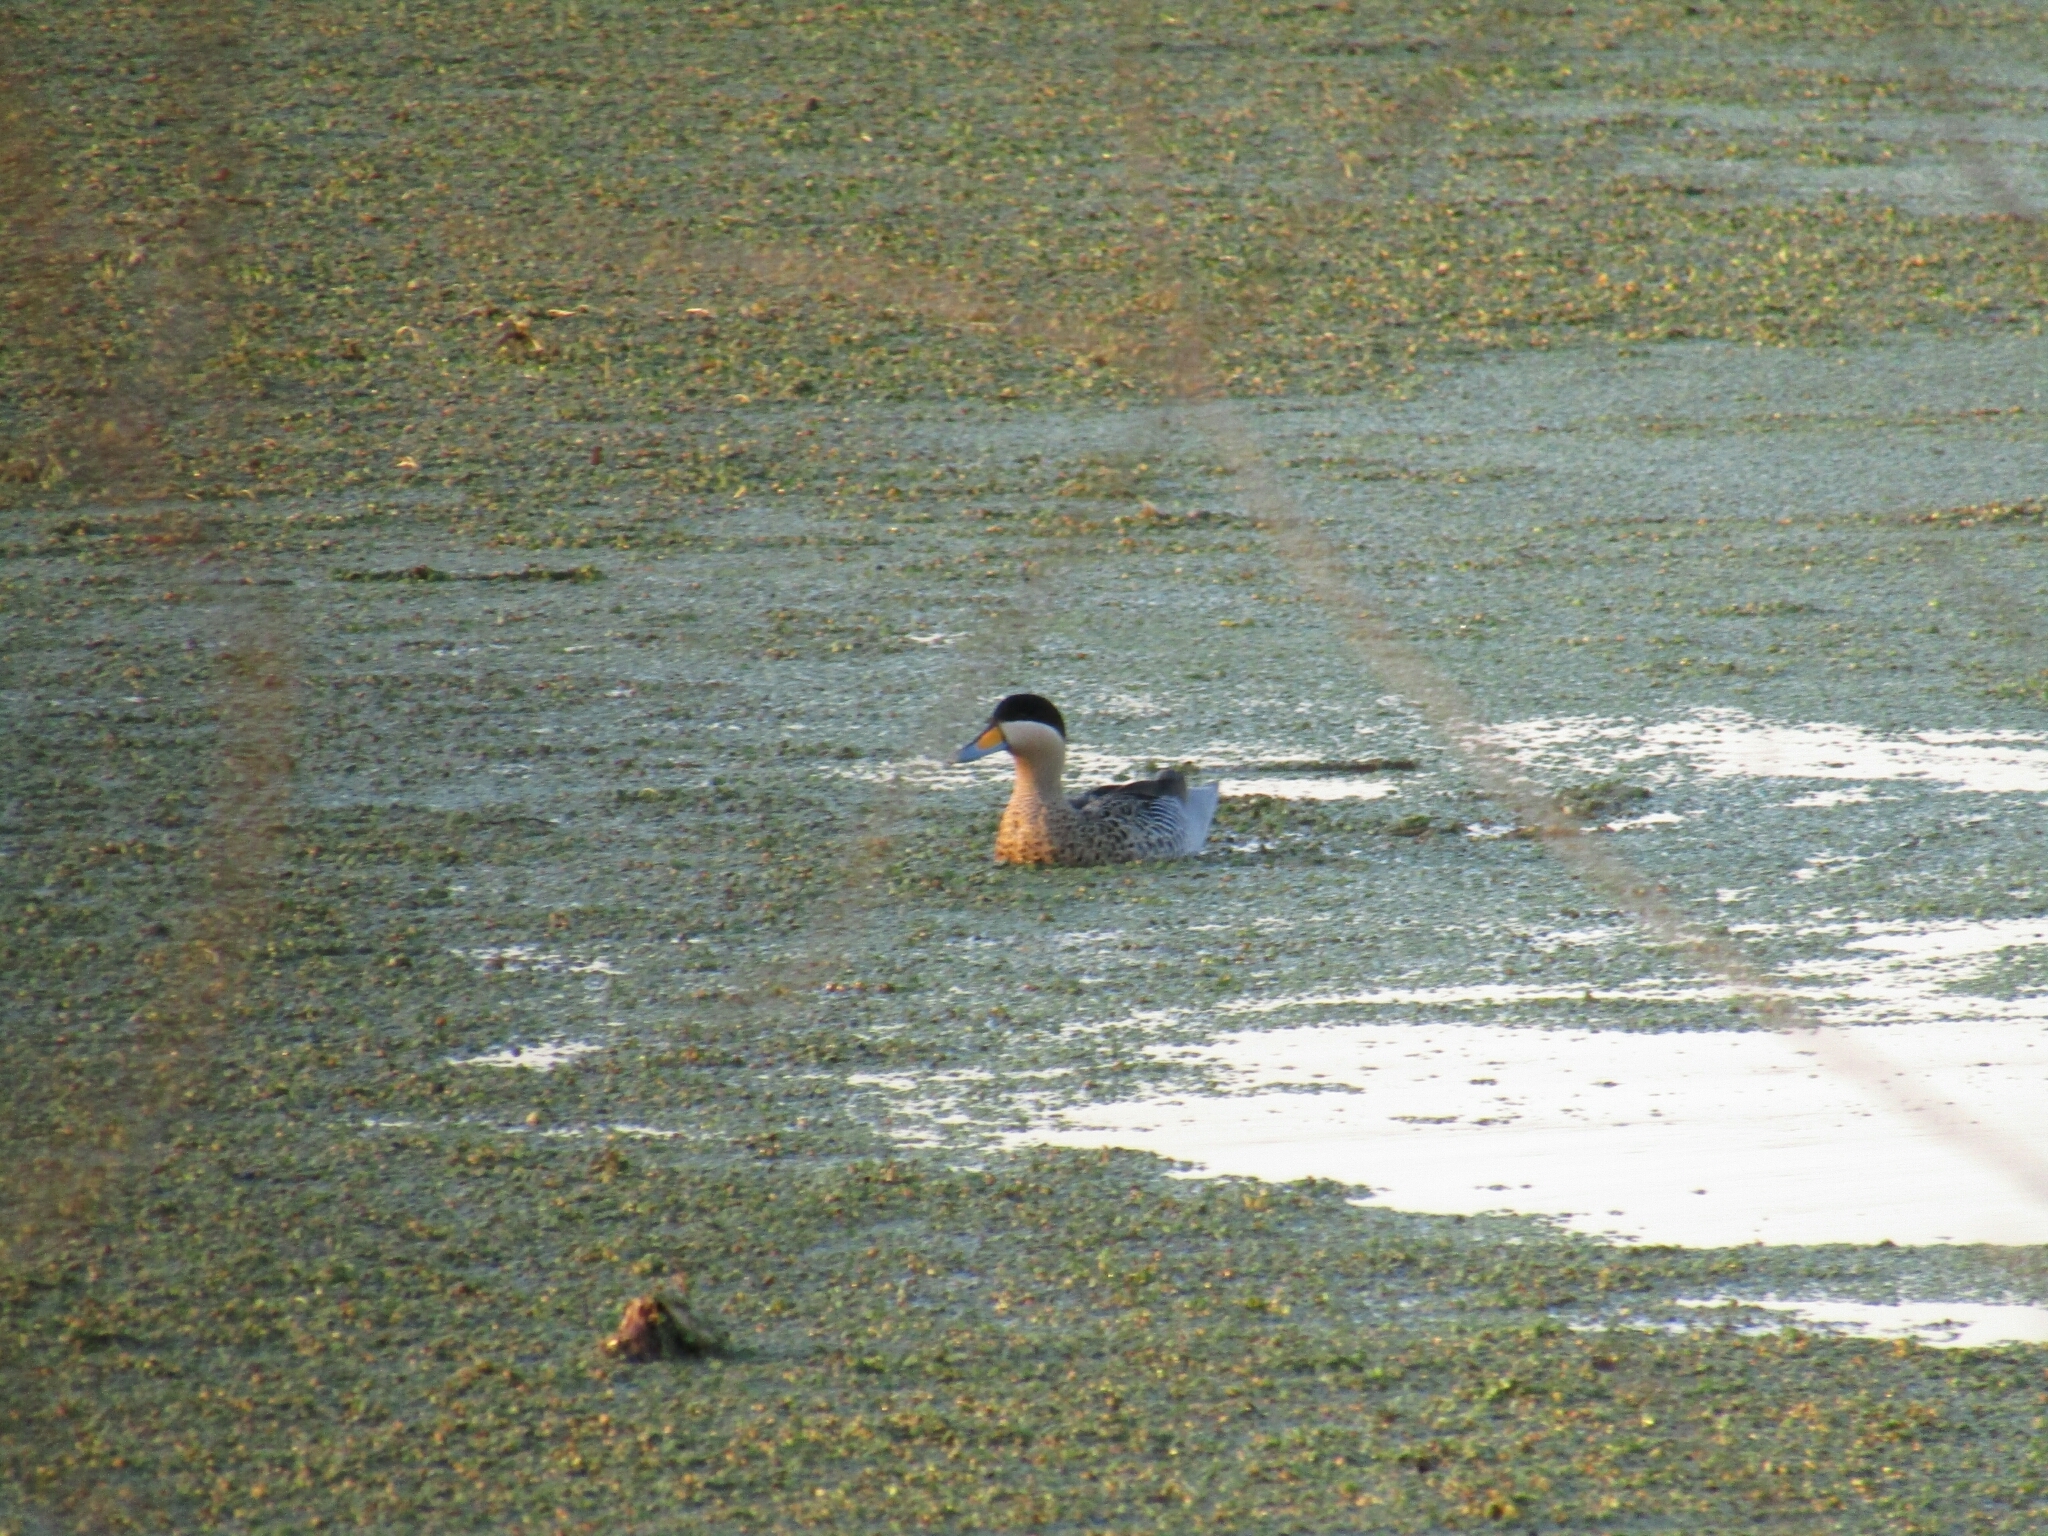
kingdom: Animalia
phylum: Chordata
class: Aves
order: Anseriformes
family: Anatidae
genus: Spatula
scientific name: Spatula versicolor
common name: Silver teal
